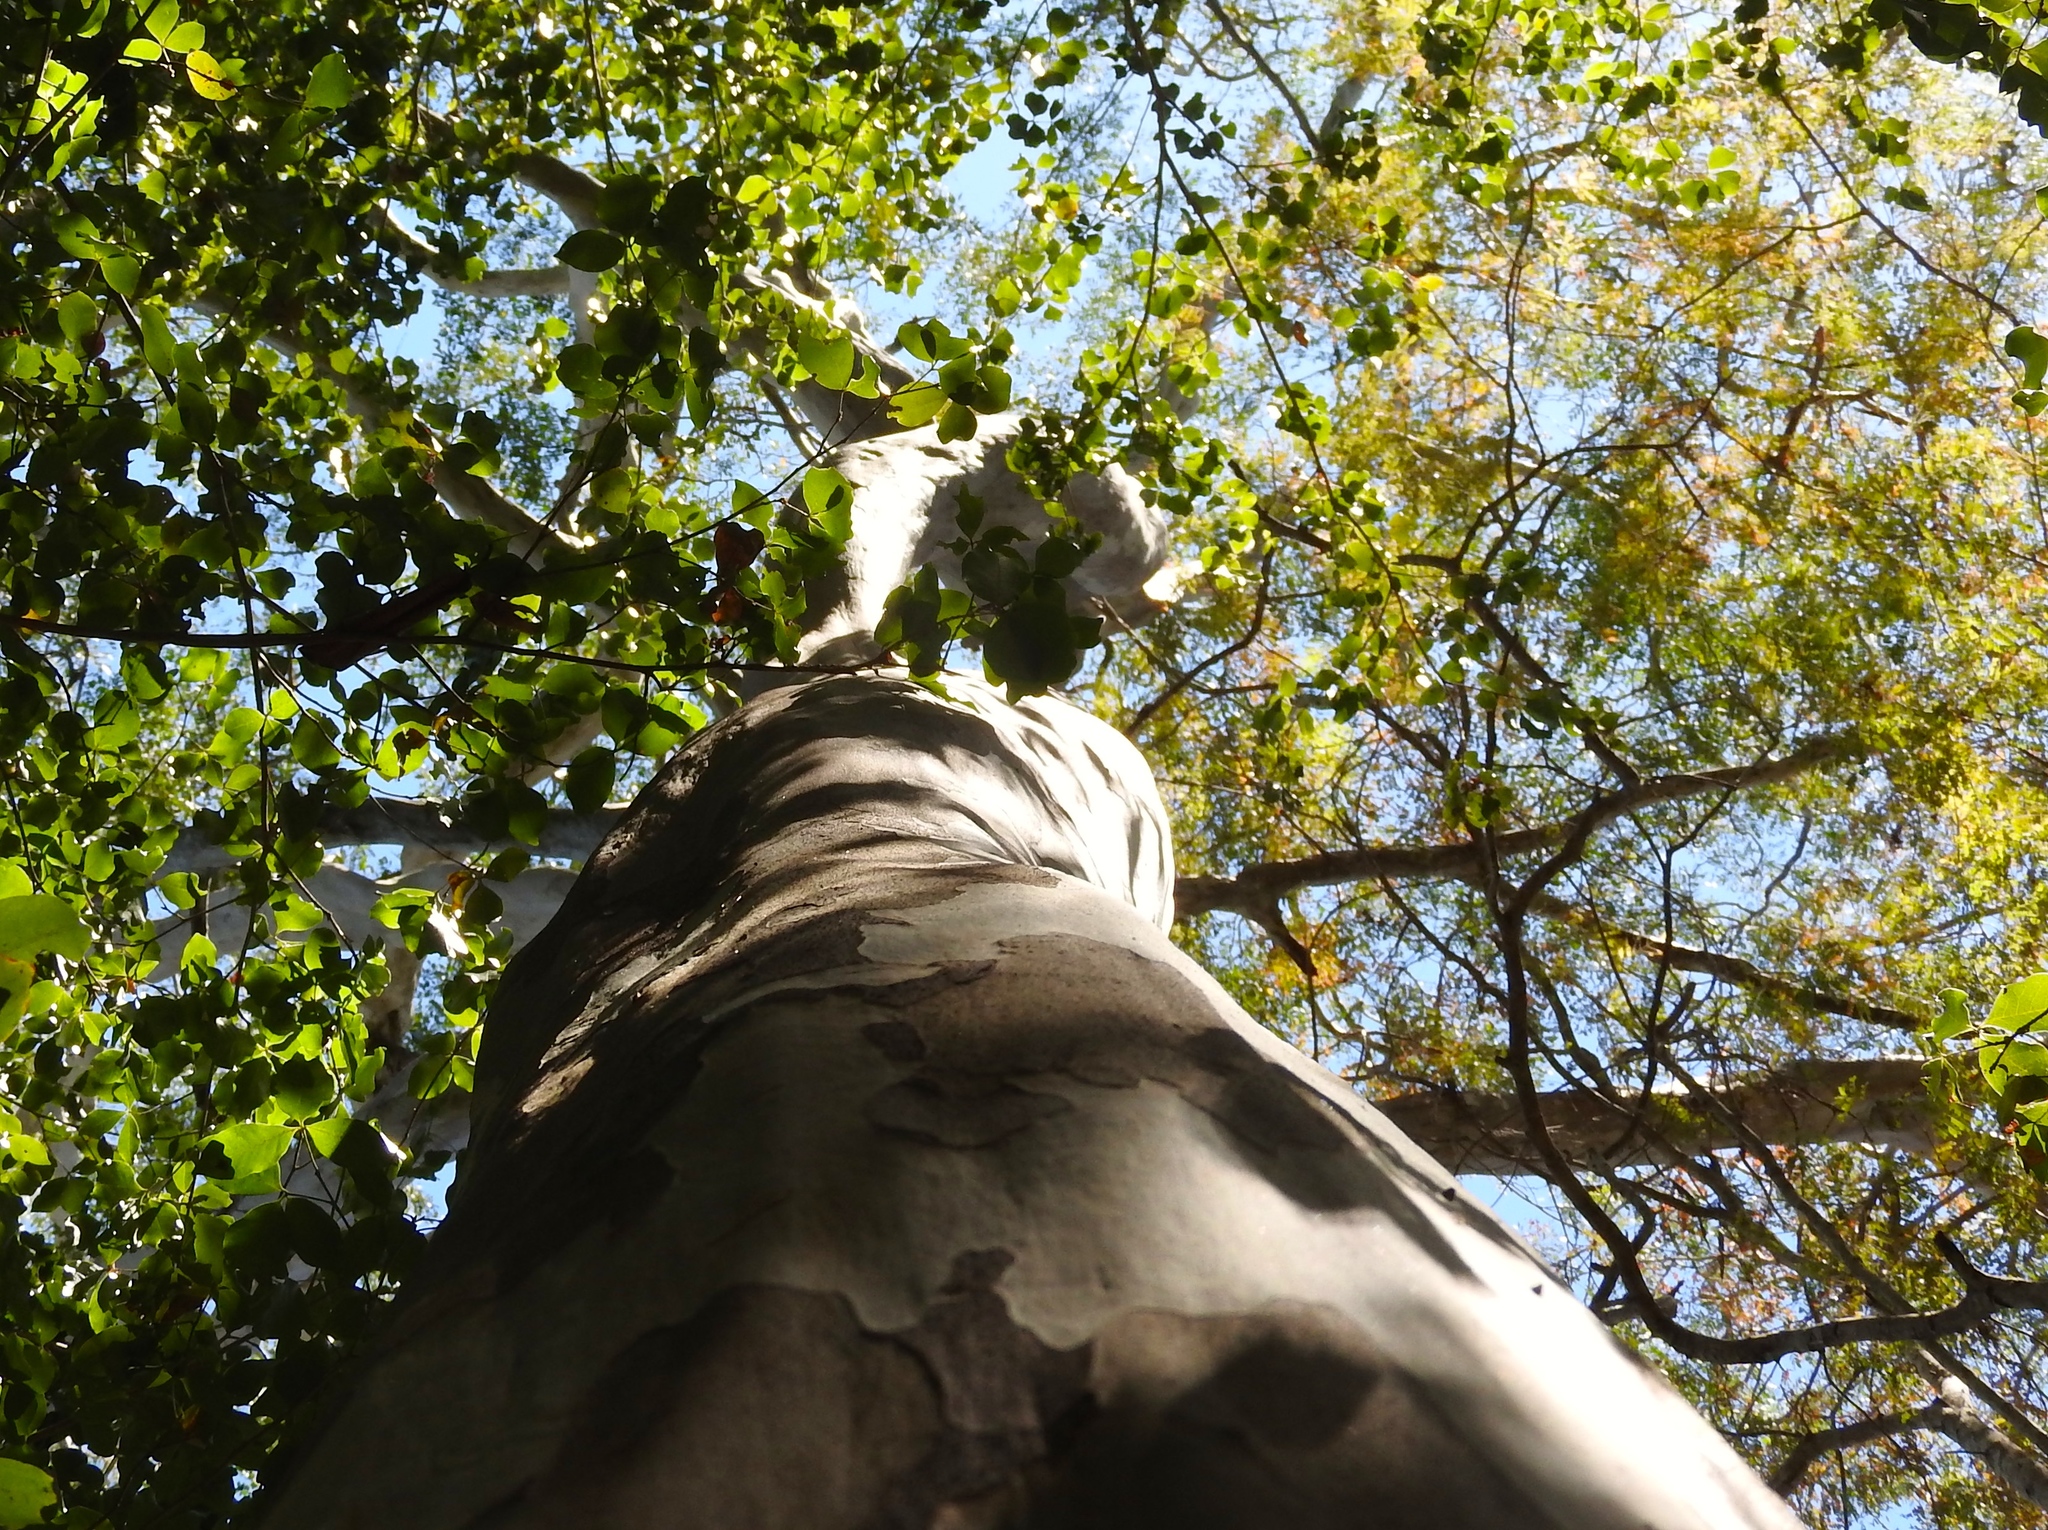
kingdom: Plantae
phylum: Tracheophyta
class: Magnoliopsida
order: Fabales
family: Fabaceae
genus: Libidibia
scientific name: Libidibia sclerocarpa
